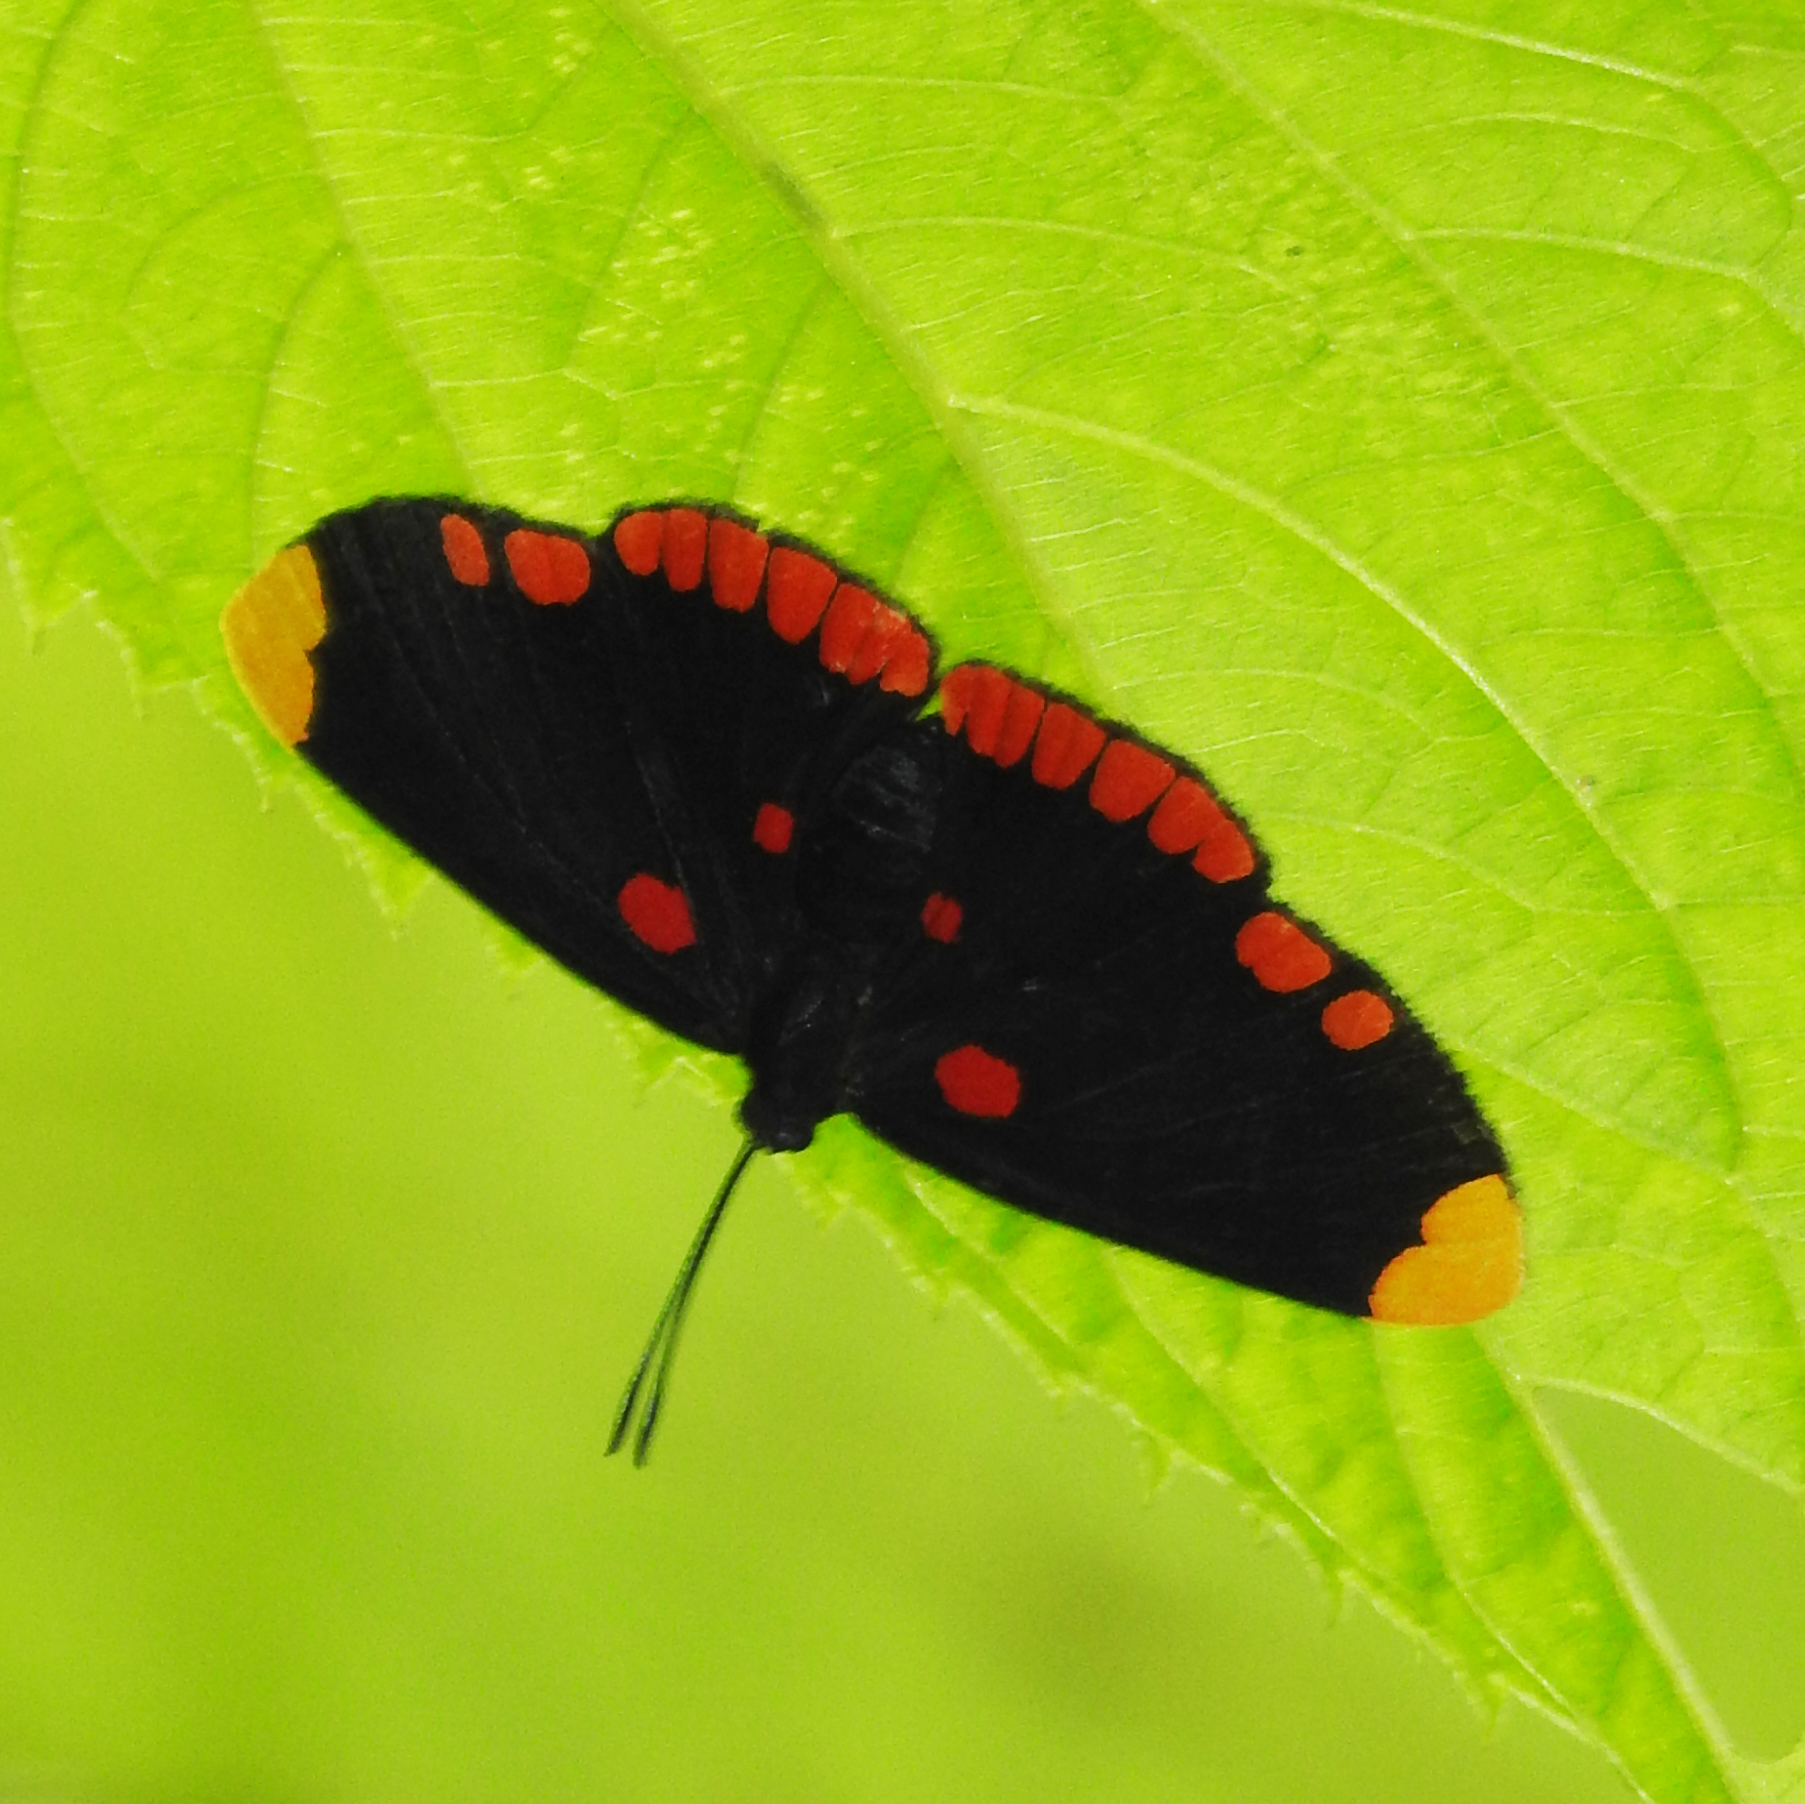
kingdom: Animalia
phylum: Arthropoda
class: Insecta
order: Lepidoptera
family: Lycaenidae
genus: Melanis
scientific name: Melanis pixe
